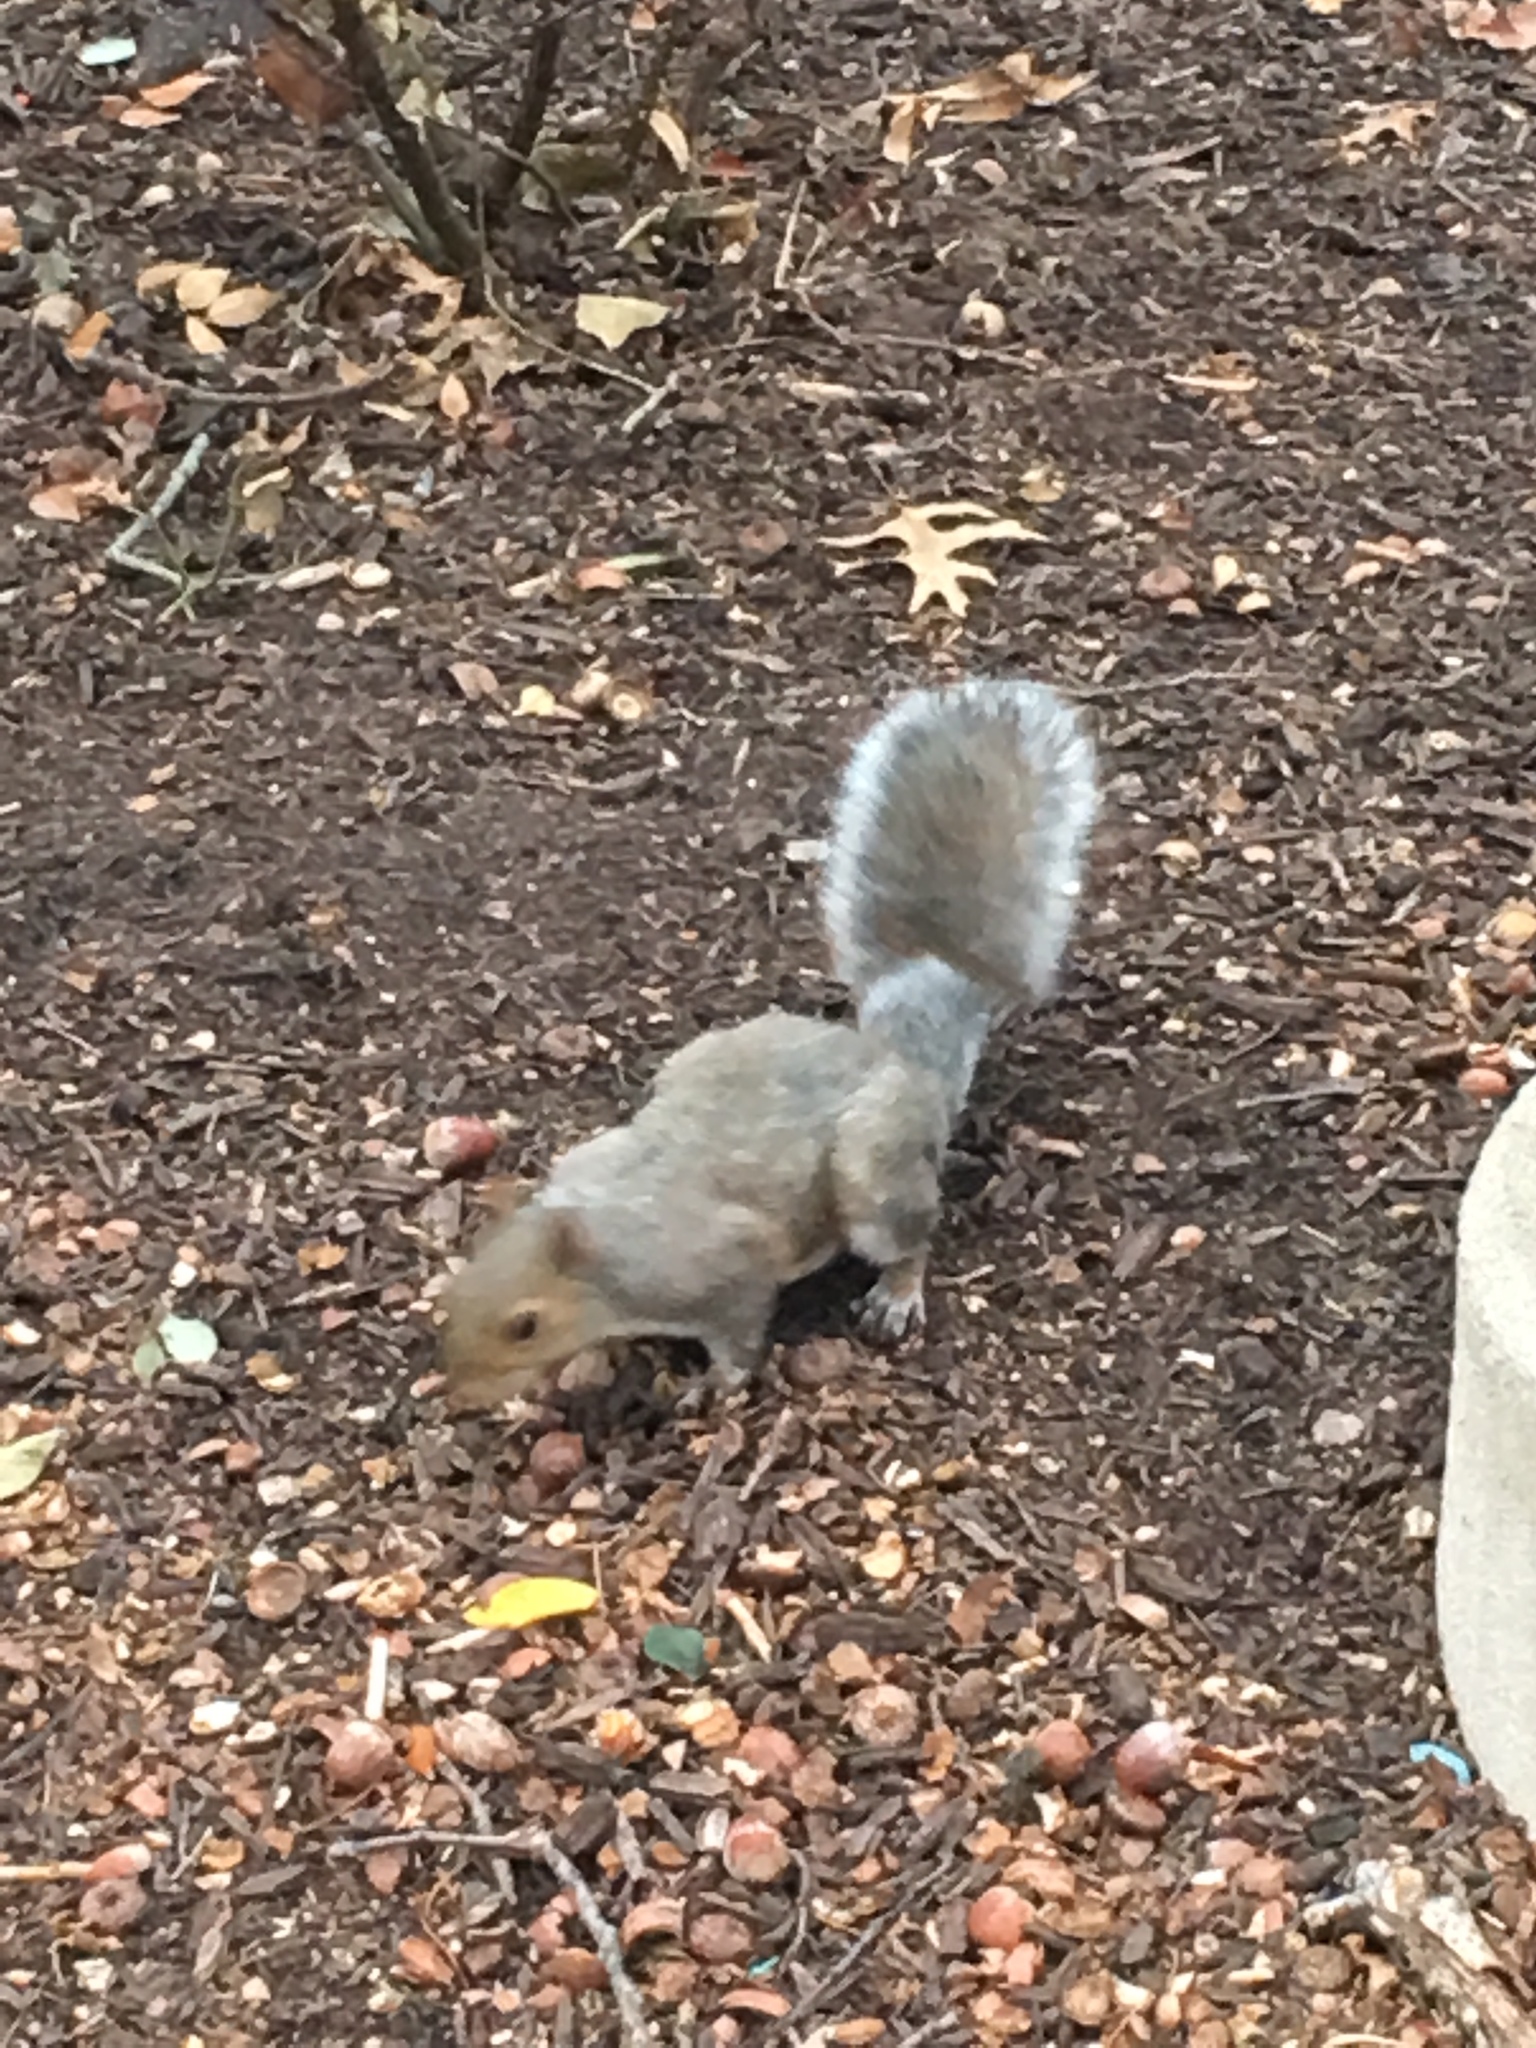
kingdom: Animalia
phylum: Chordata
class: Mammalia
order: Rodentia
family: Sciuridae
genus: Sciurus
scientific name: Sciurus carolinensis
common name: Eastern gray squirrel
